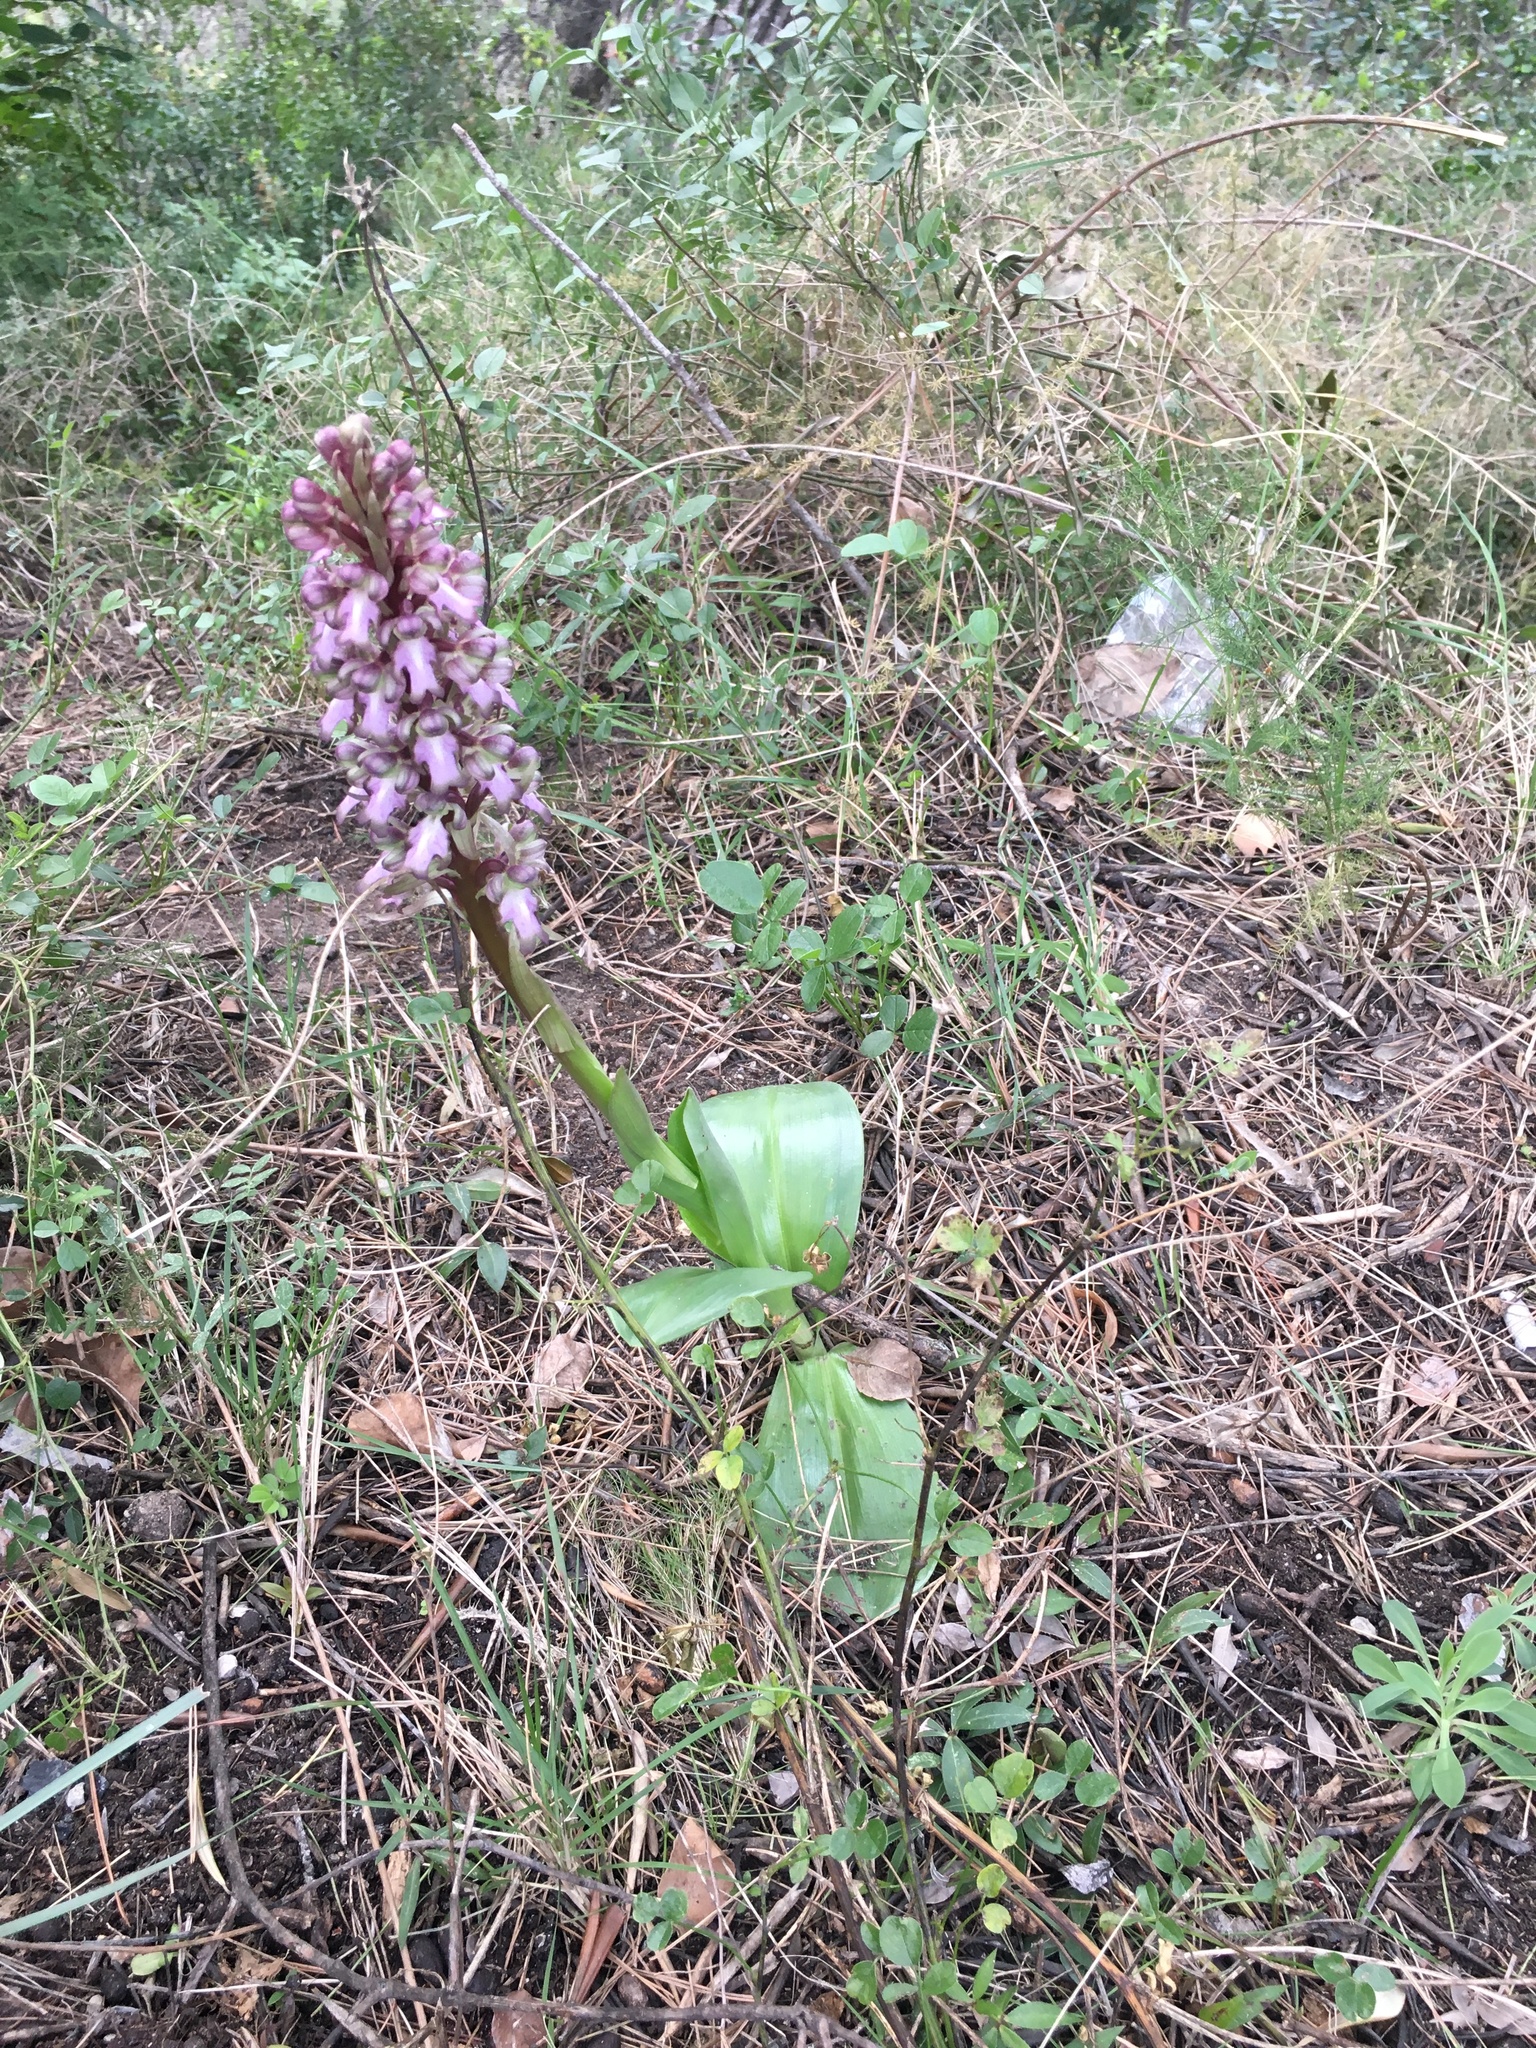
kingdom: Plantae
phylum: Tracheophyta
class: Liliopsida
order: Asparagales
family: Orchidaceae
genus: Himantoglossum
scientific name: Himantoglossum robertianum
